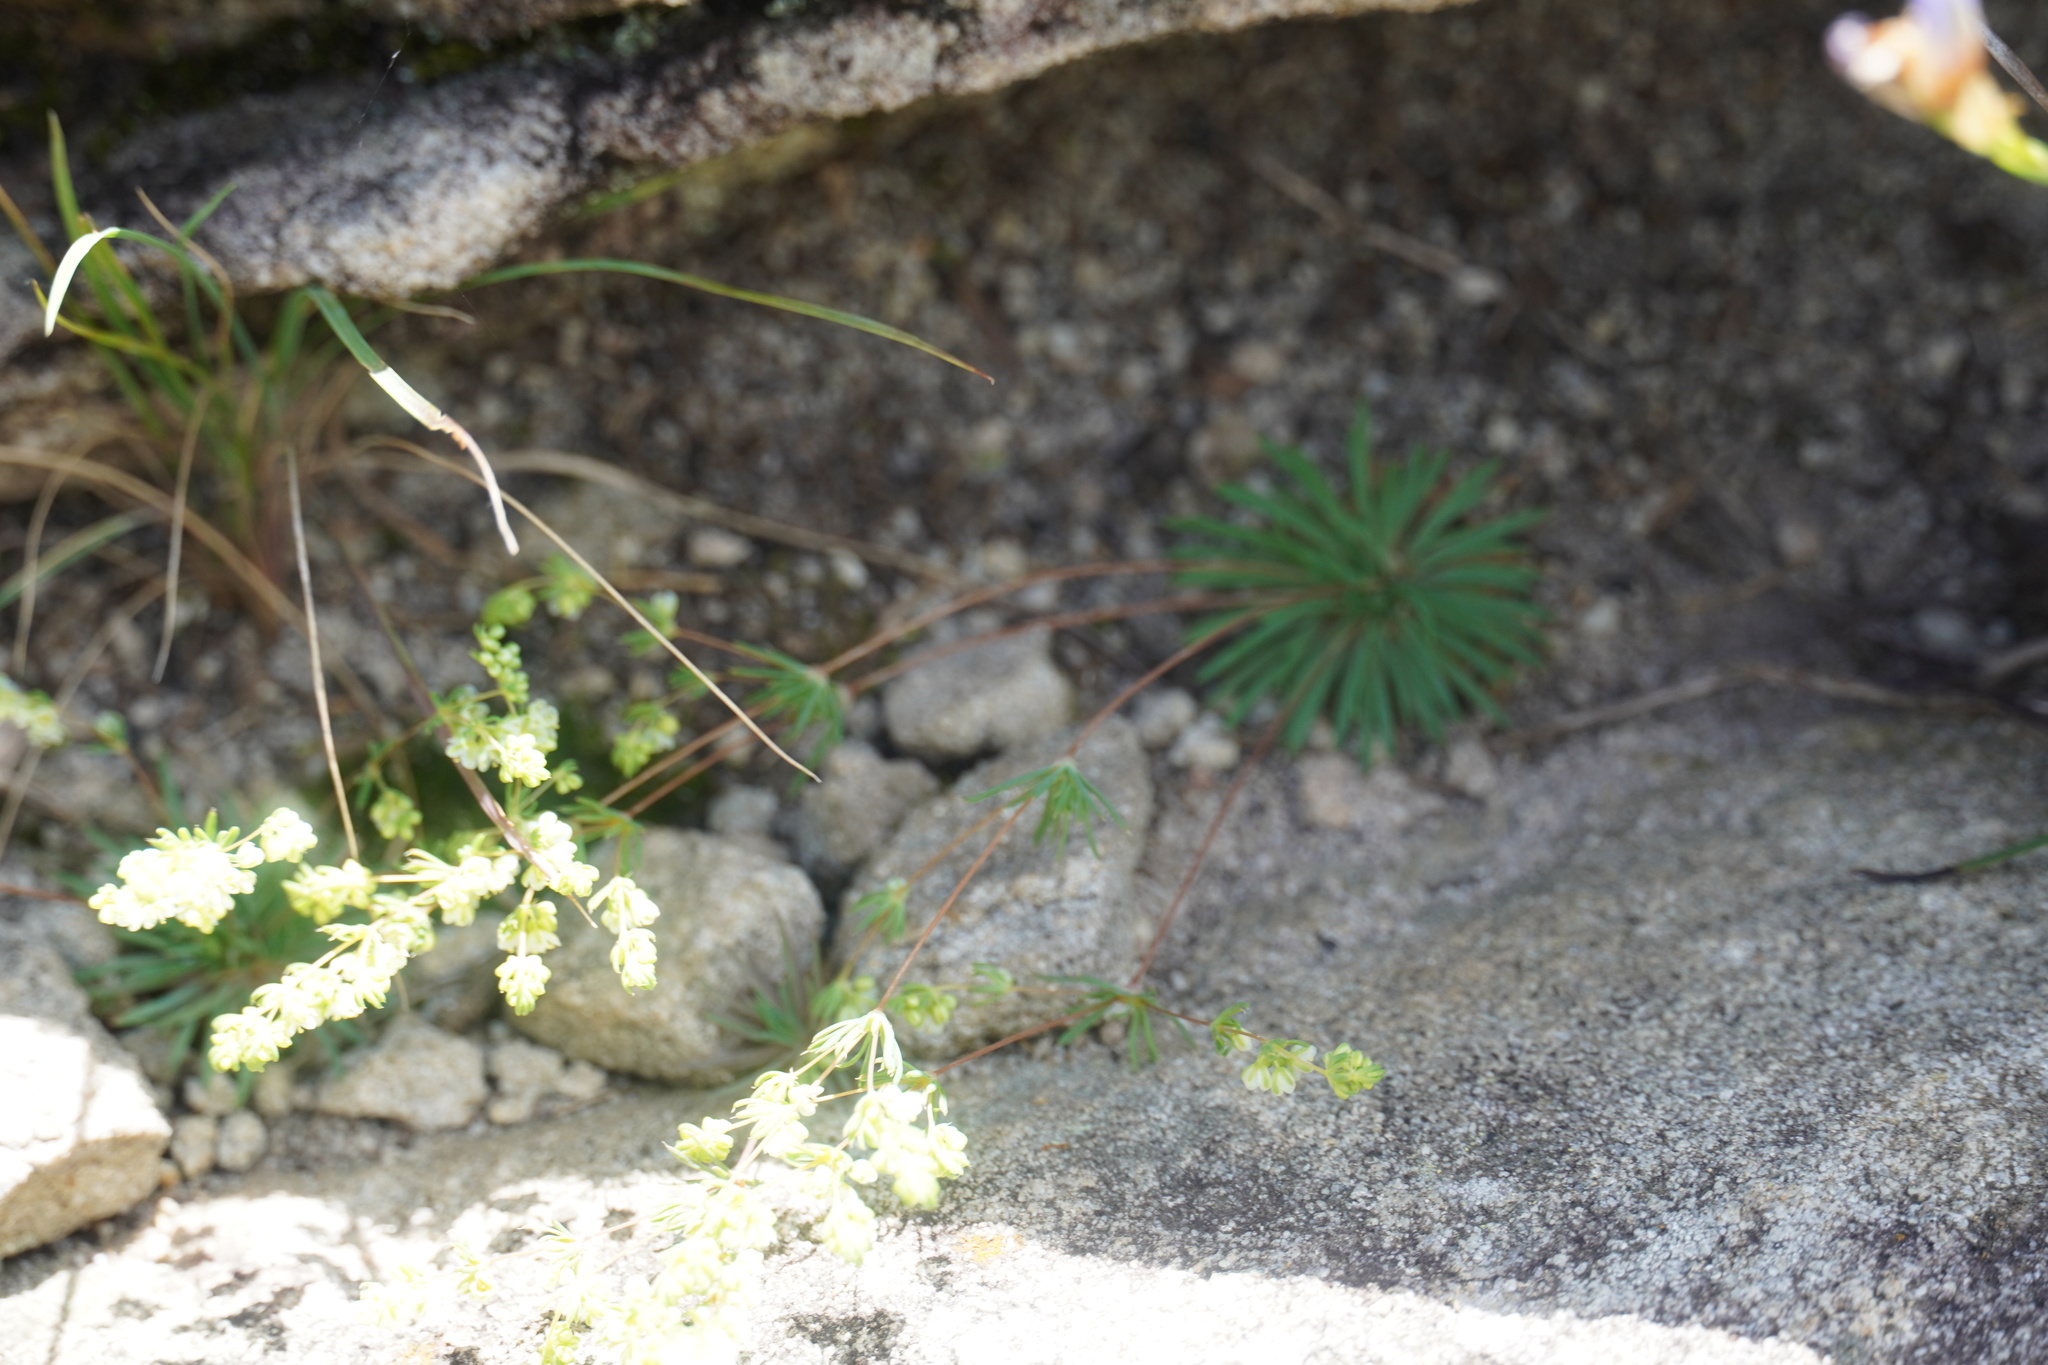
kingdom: Plantae
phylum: Tracheophyta
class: Magnoliopsida
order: Caryophyllales
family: Molluginaceae
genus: Psammotropha
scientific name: Psammotropha myriantha
